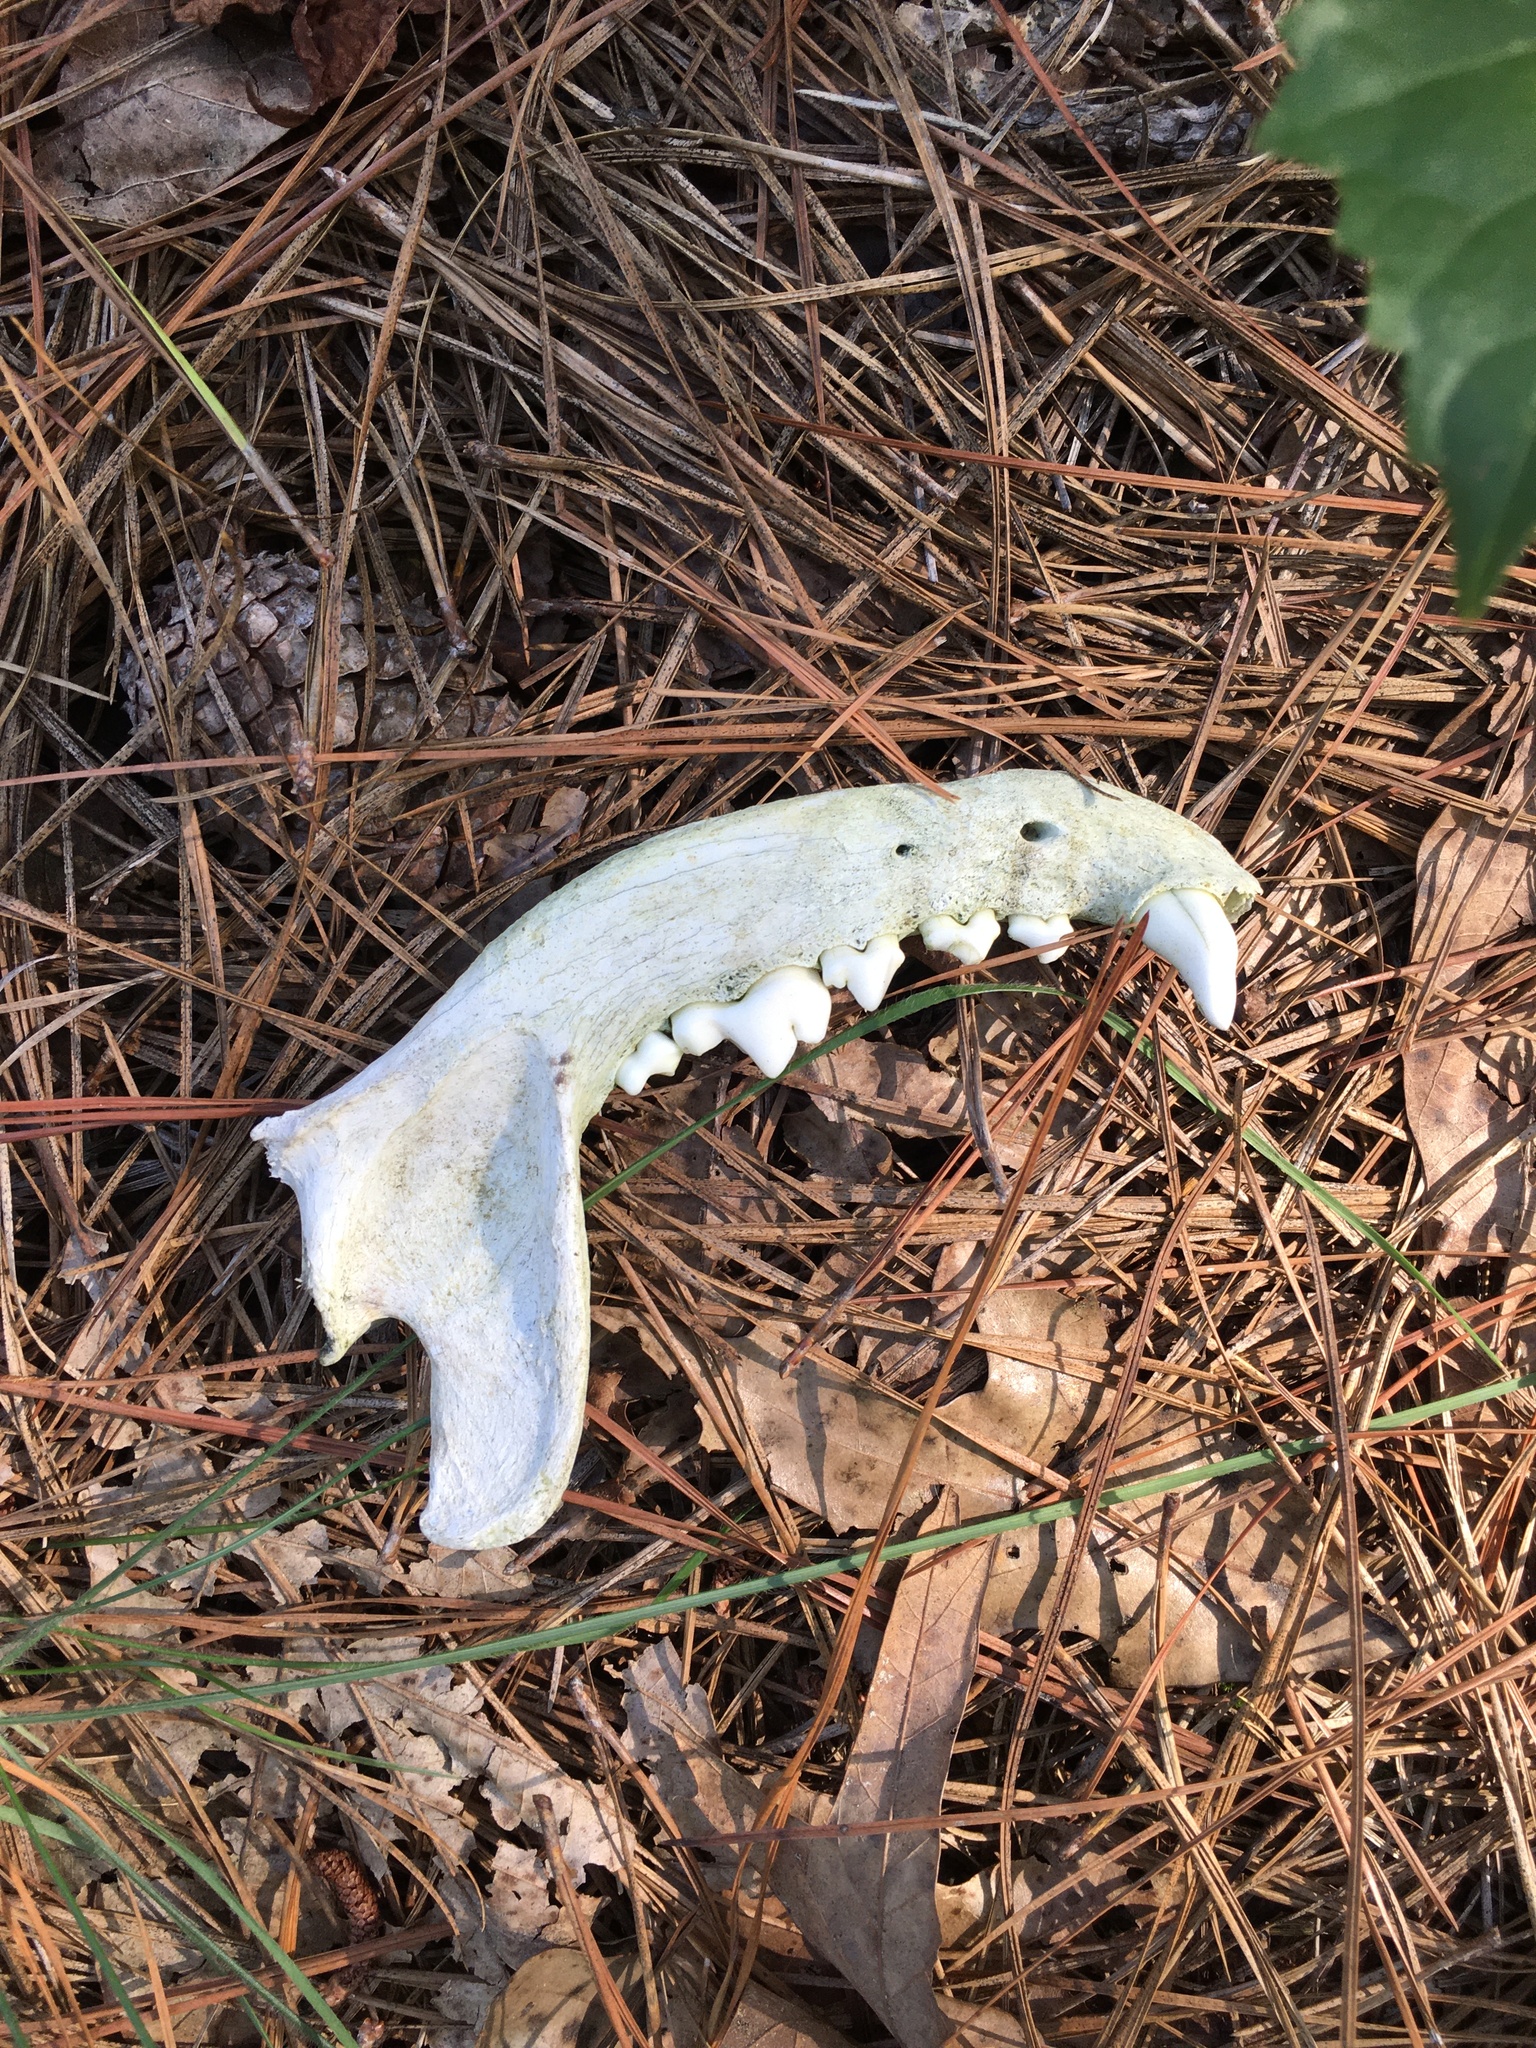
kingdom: Animalia
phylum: Chordata
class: Mammalia
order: Carnivora
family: Canidae
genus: Canis
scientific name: Canis lupus
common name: Gray wolf
